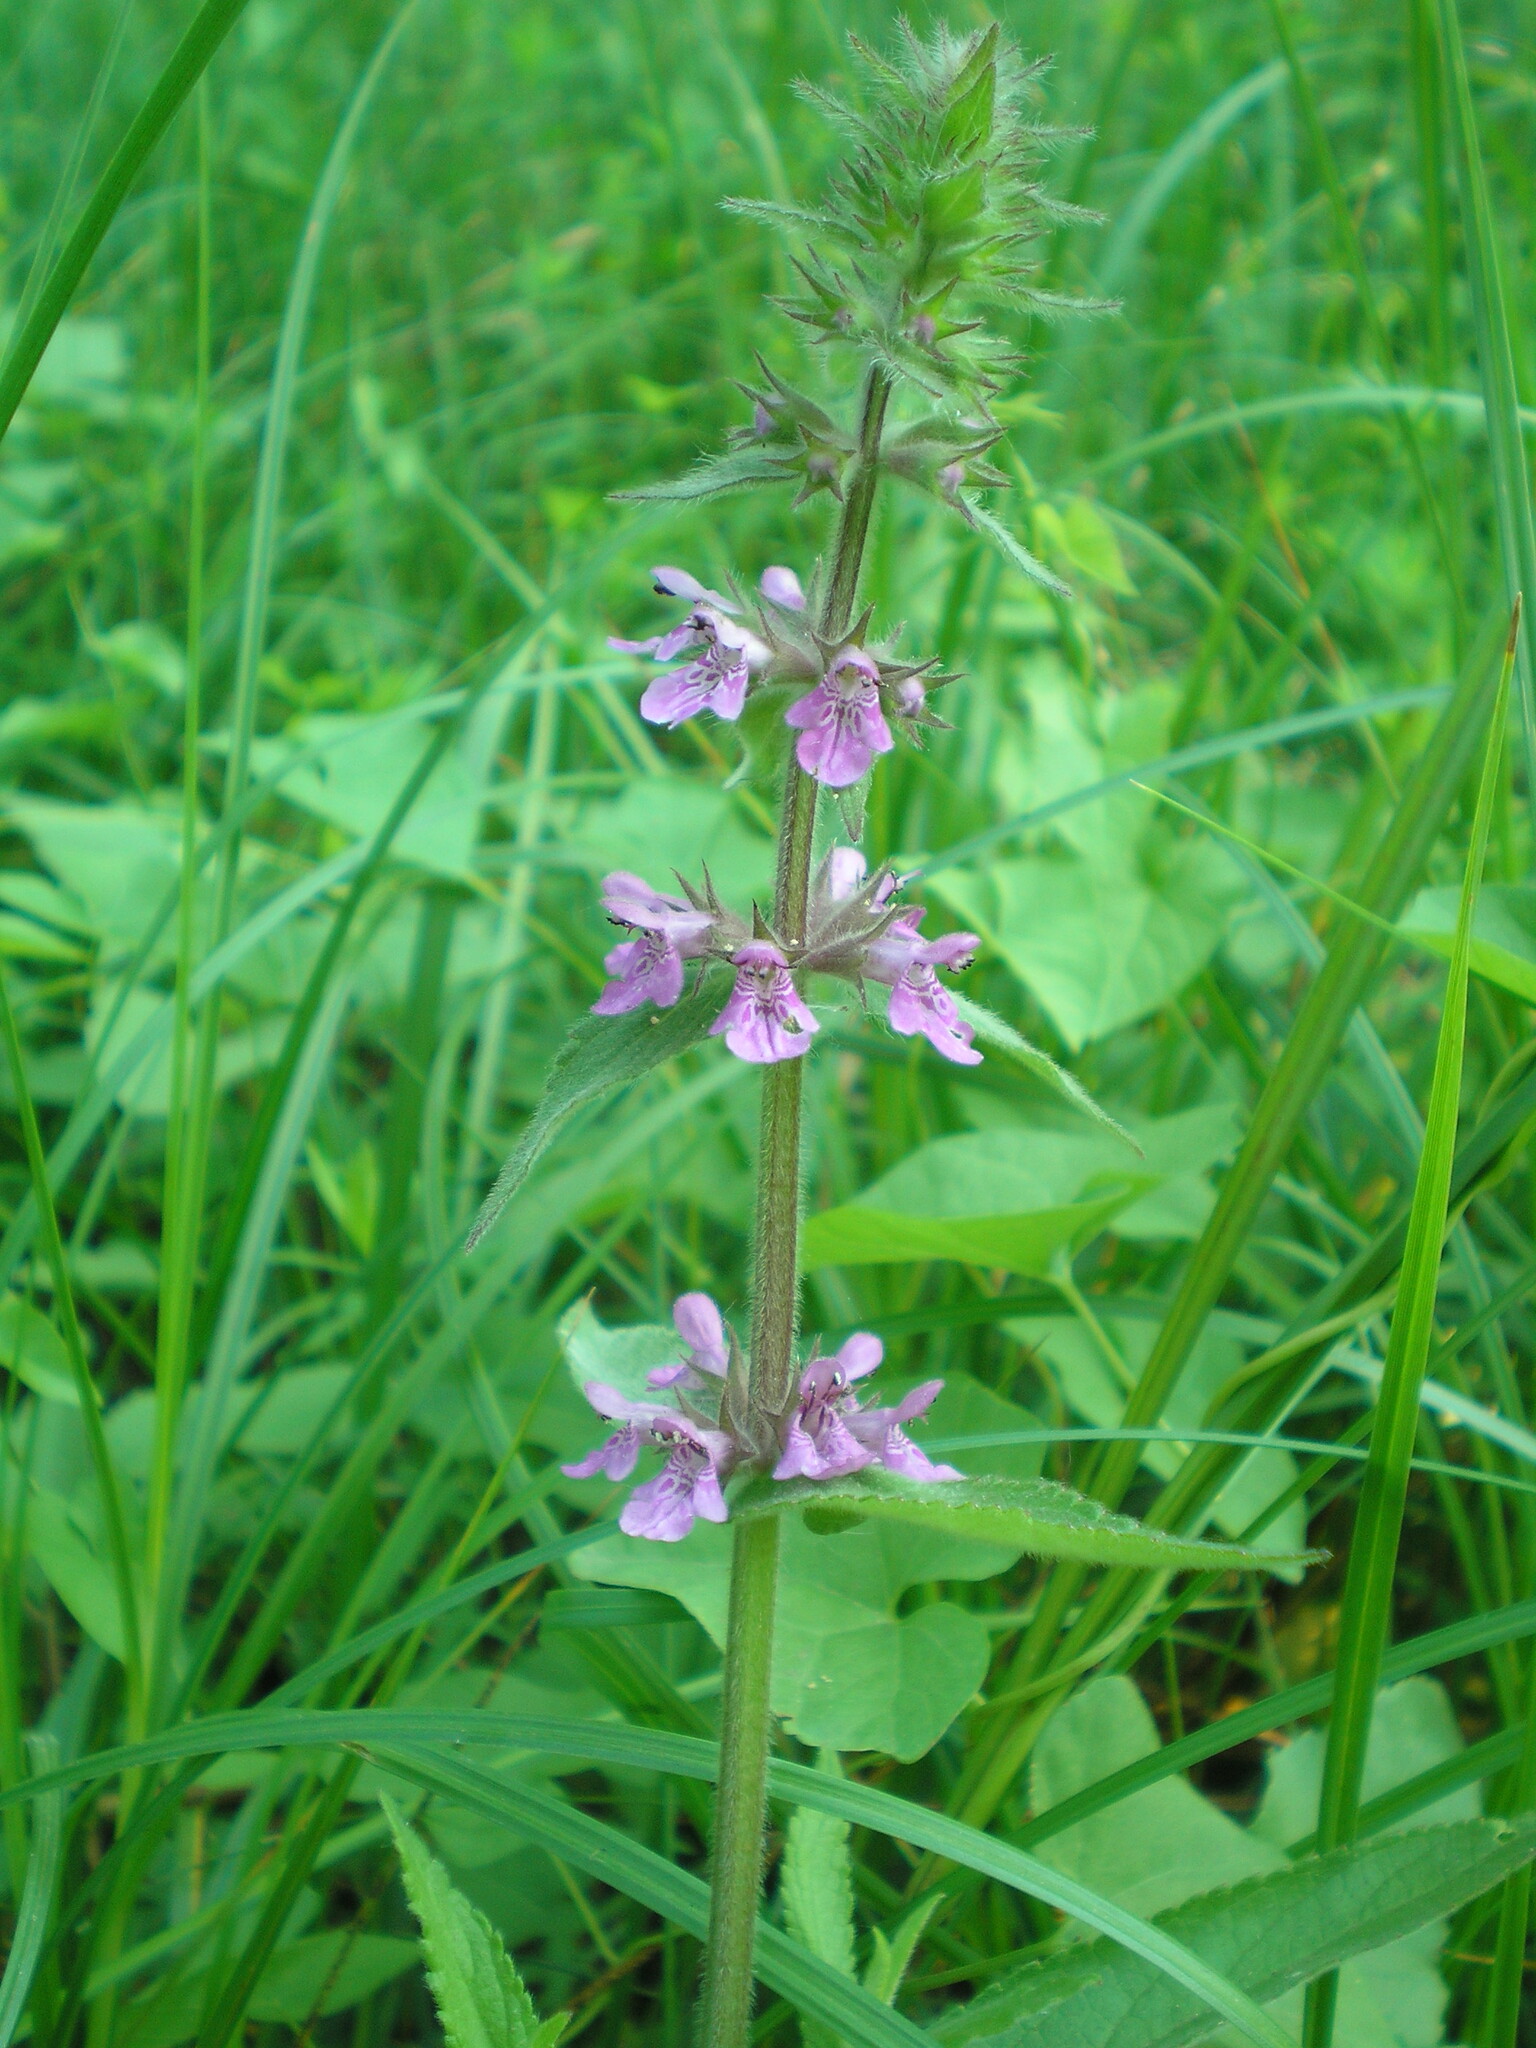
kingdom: Plantae
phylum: Tracheophyta
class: Magnoliopsida
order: Lamiales
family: Lamiaceae
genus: Stachys
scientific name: Stachys palustris
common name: Marsh woundwort
